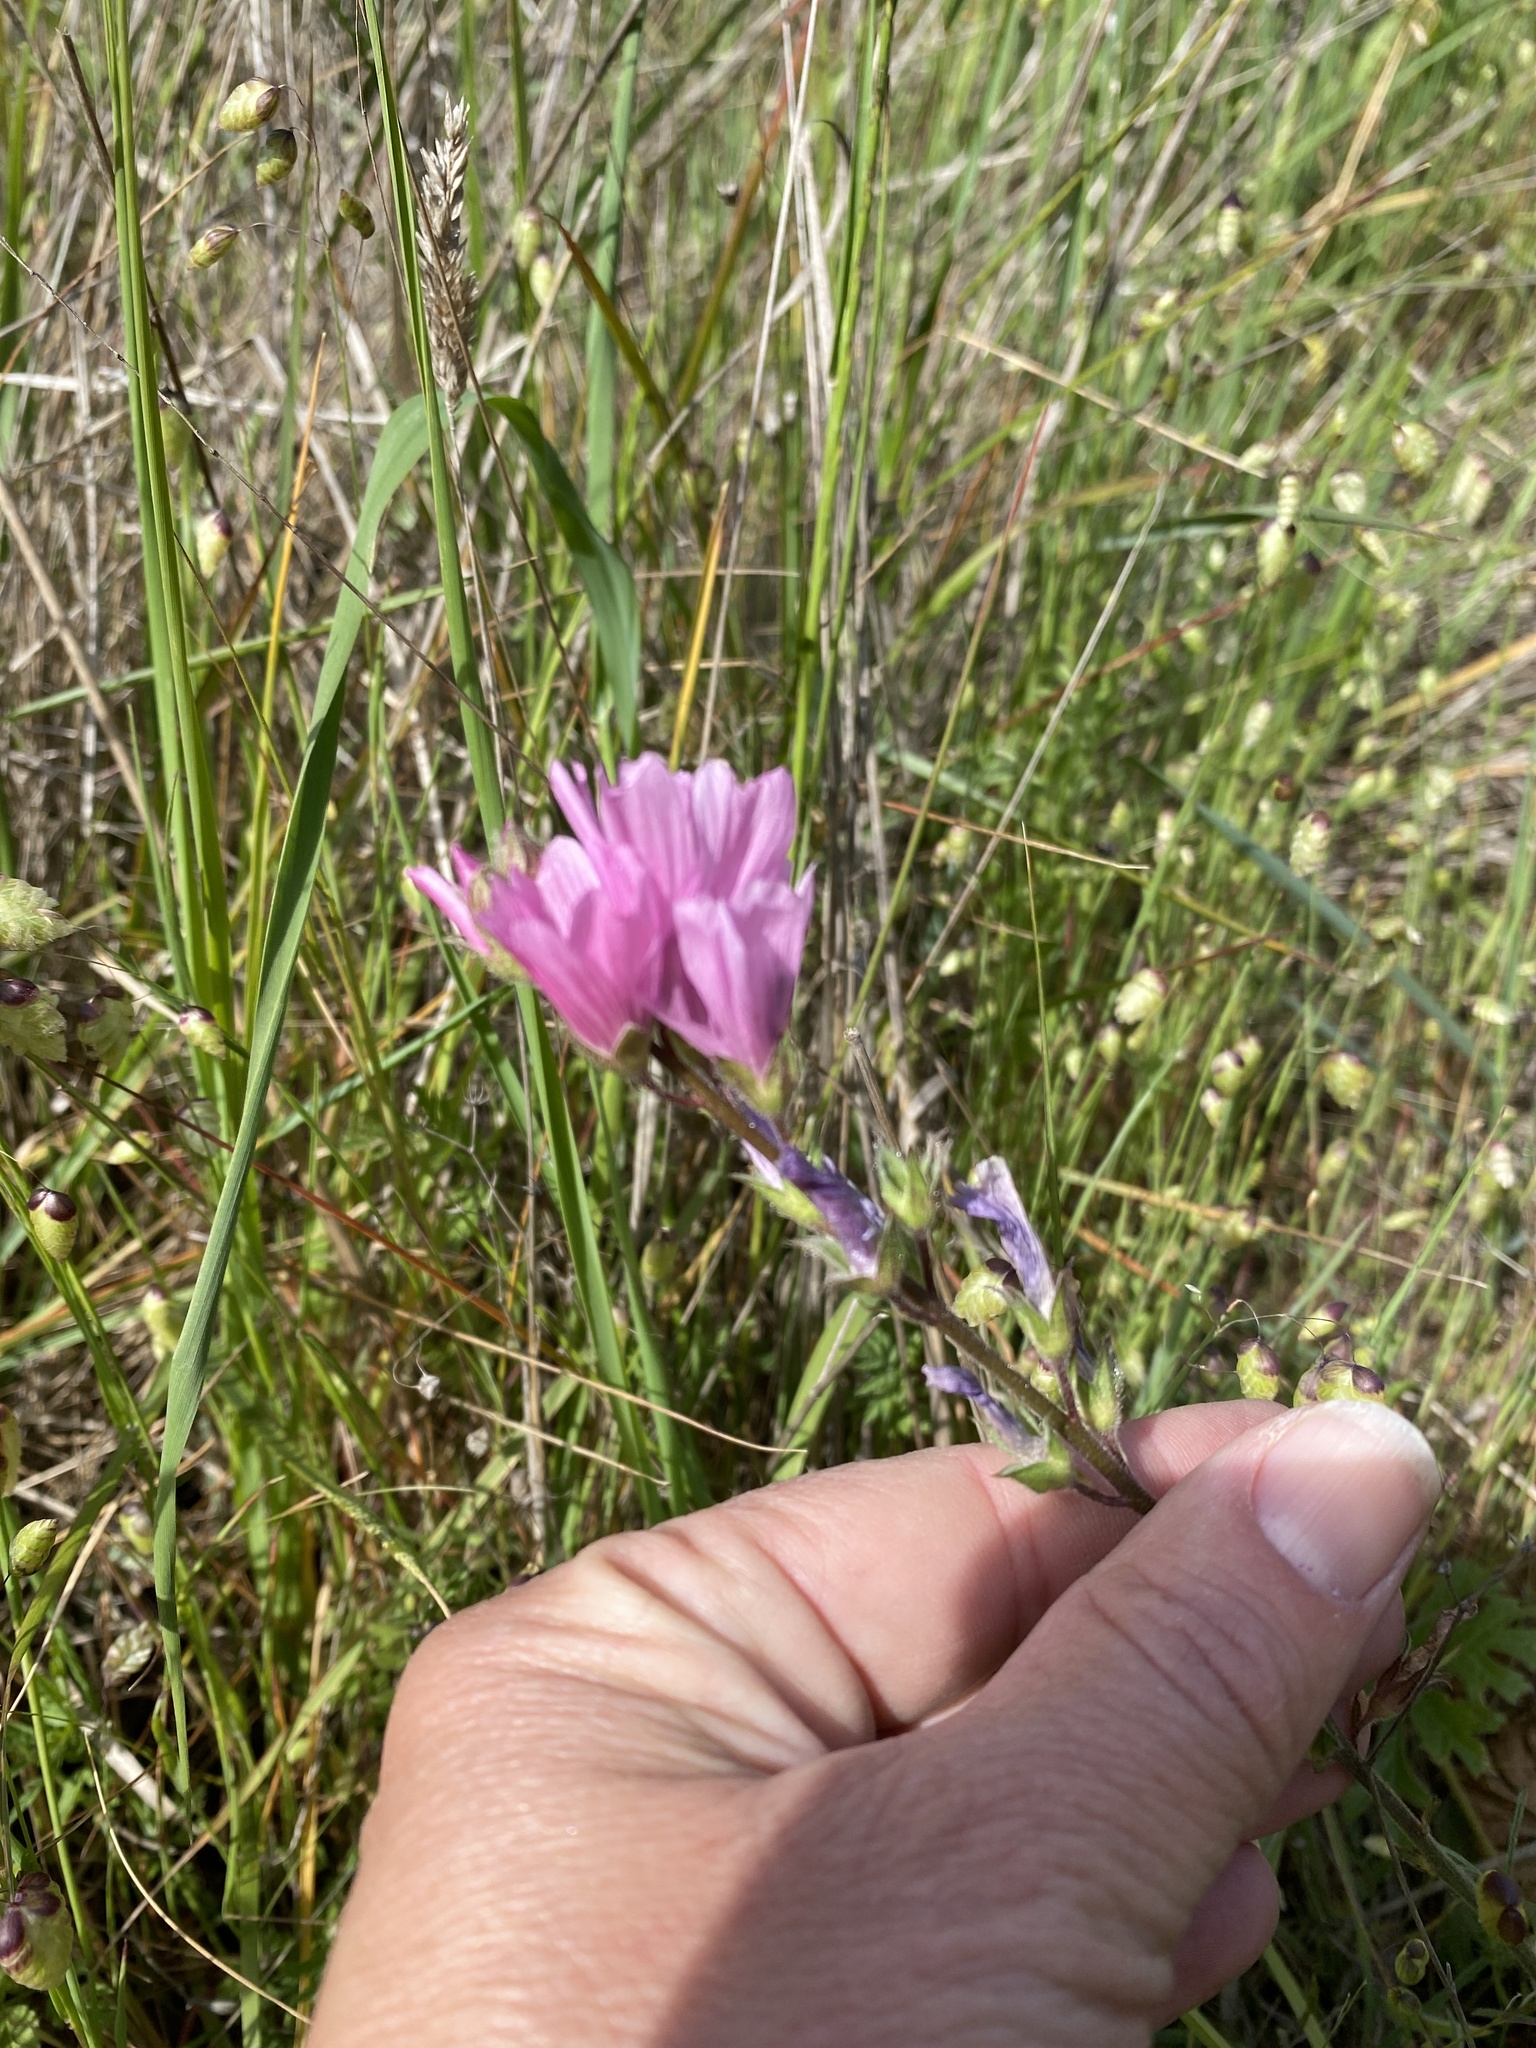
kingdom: Plantae
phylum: Tracheophyta
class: Magnoliopsida
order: Malvales
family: Malvaceae
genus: Sidalcea
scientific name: Sidalcea malviflora
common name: Greek mallow
